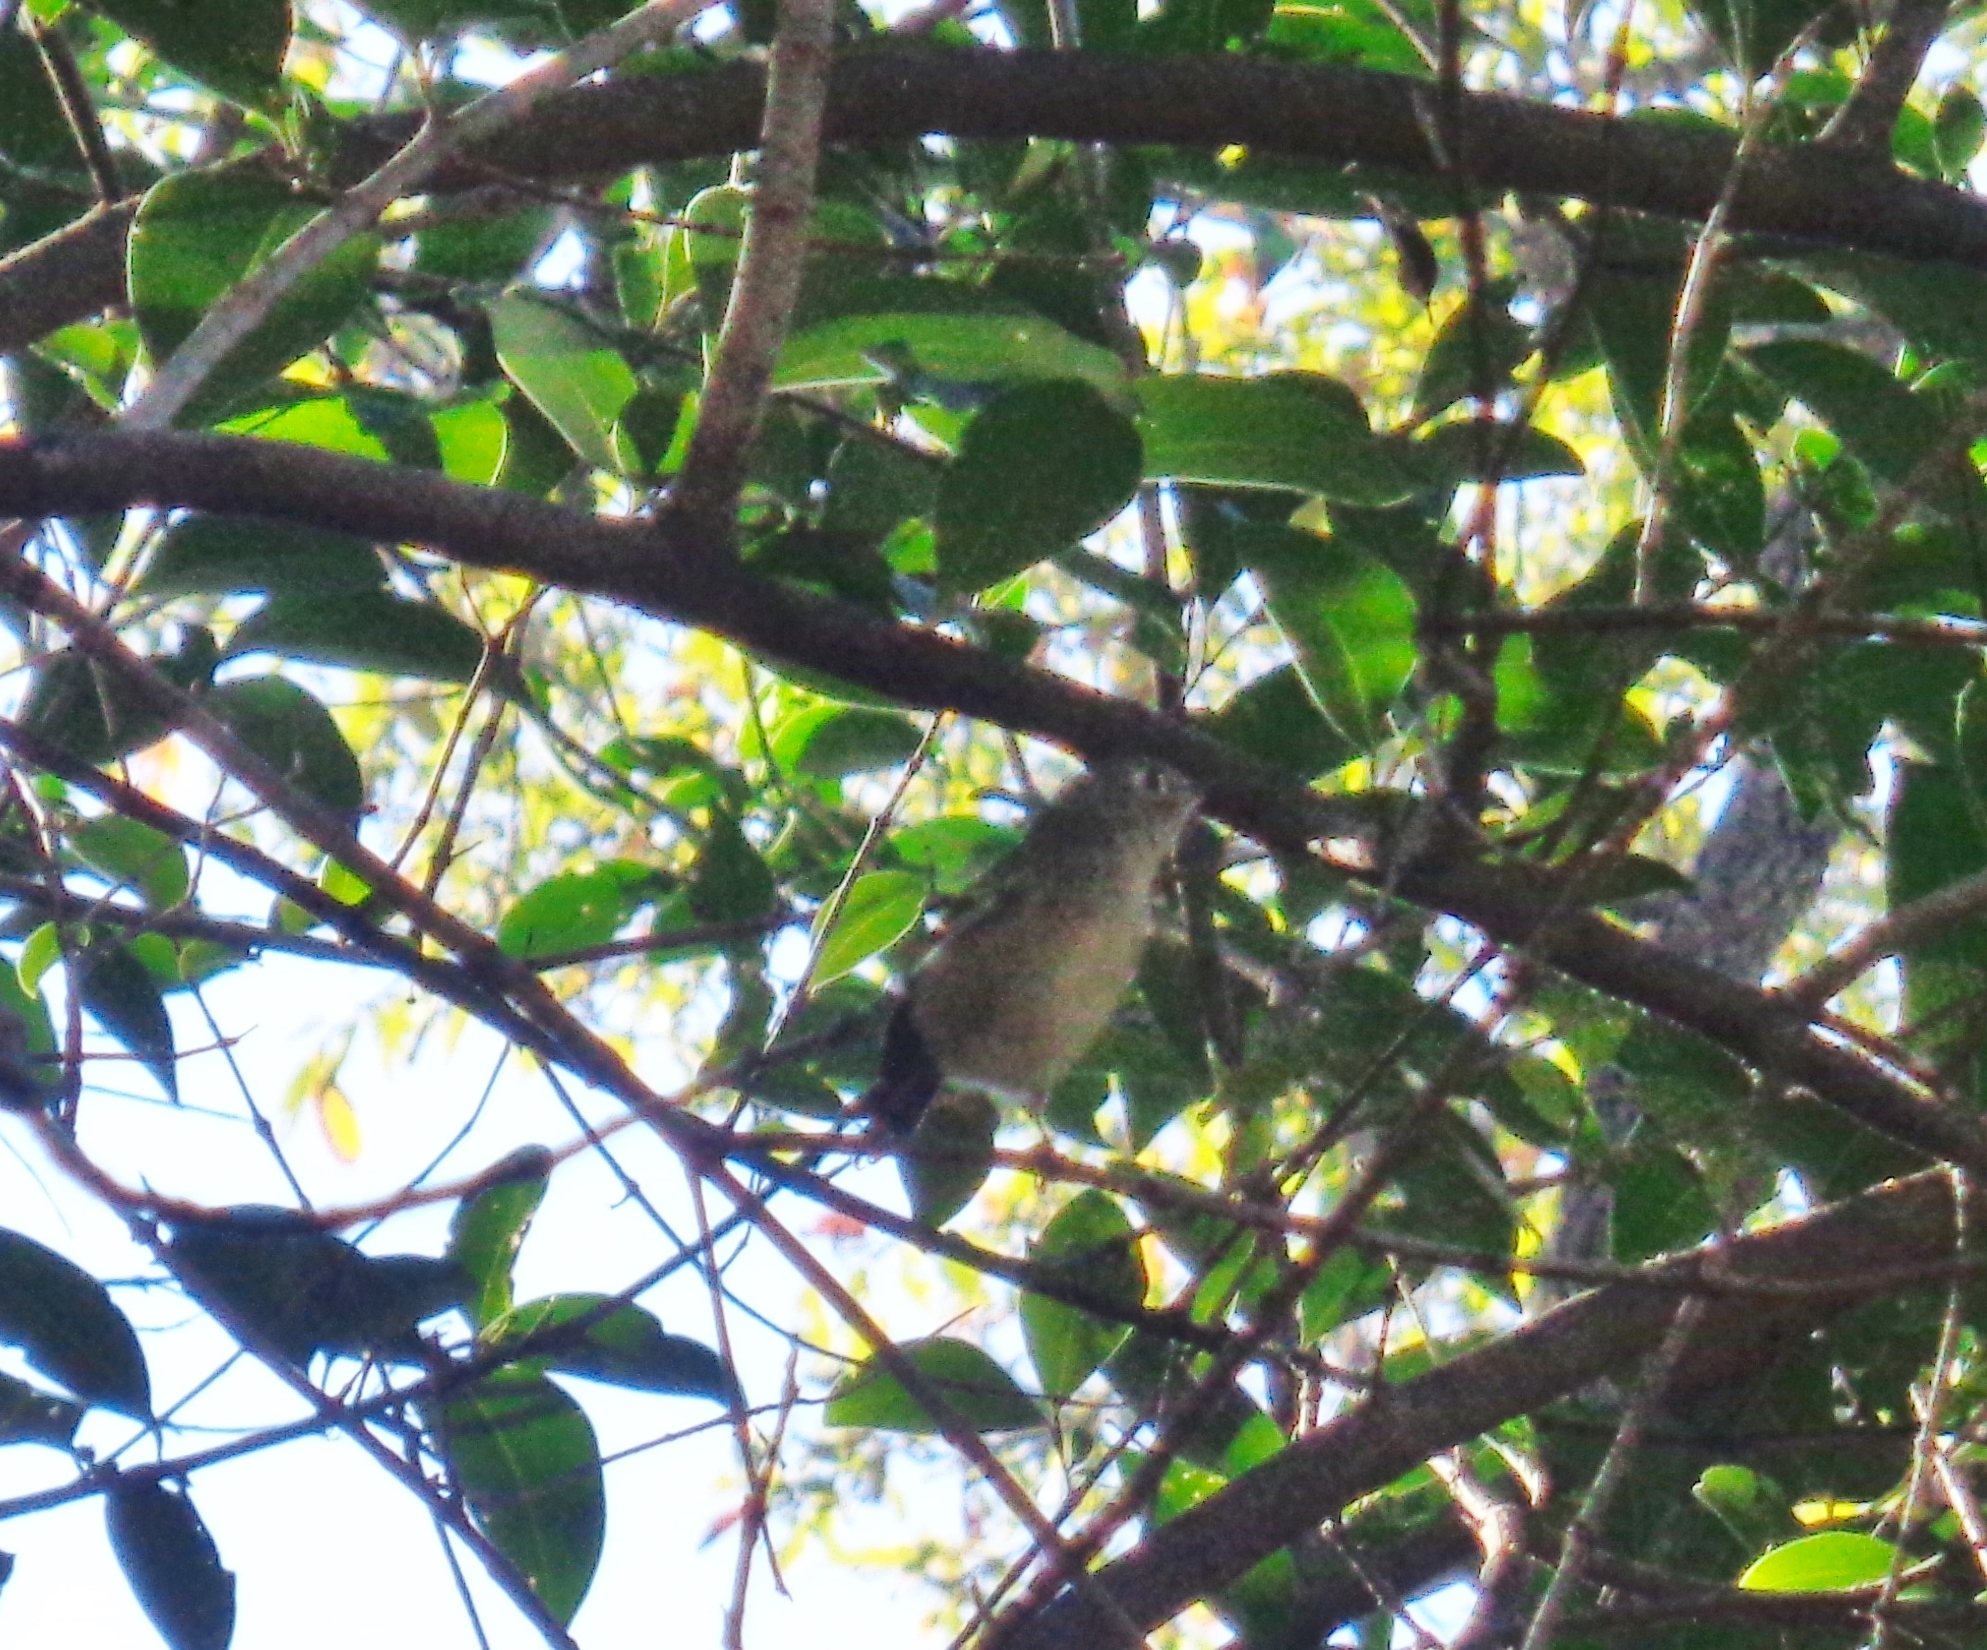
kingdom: Animalia
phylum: Chordata
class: Aves
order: Passeriformes
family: Regulidae
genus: Regulus
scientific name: Regulus calendula
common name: Ruby-crowned kinglet
